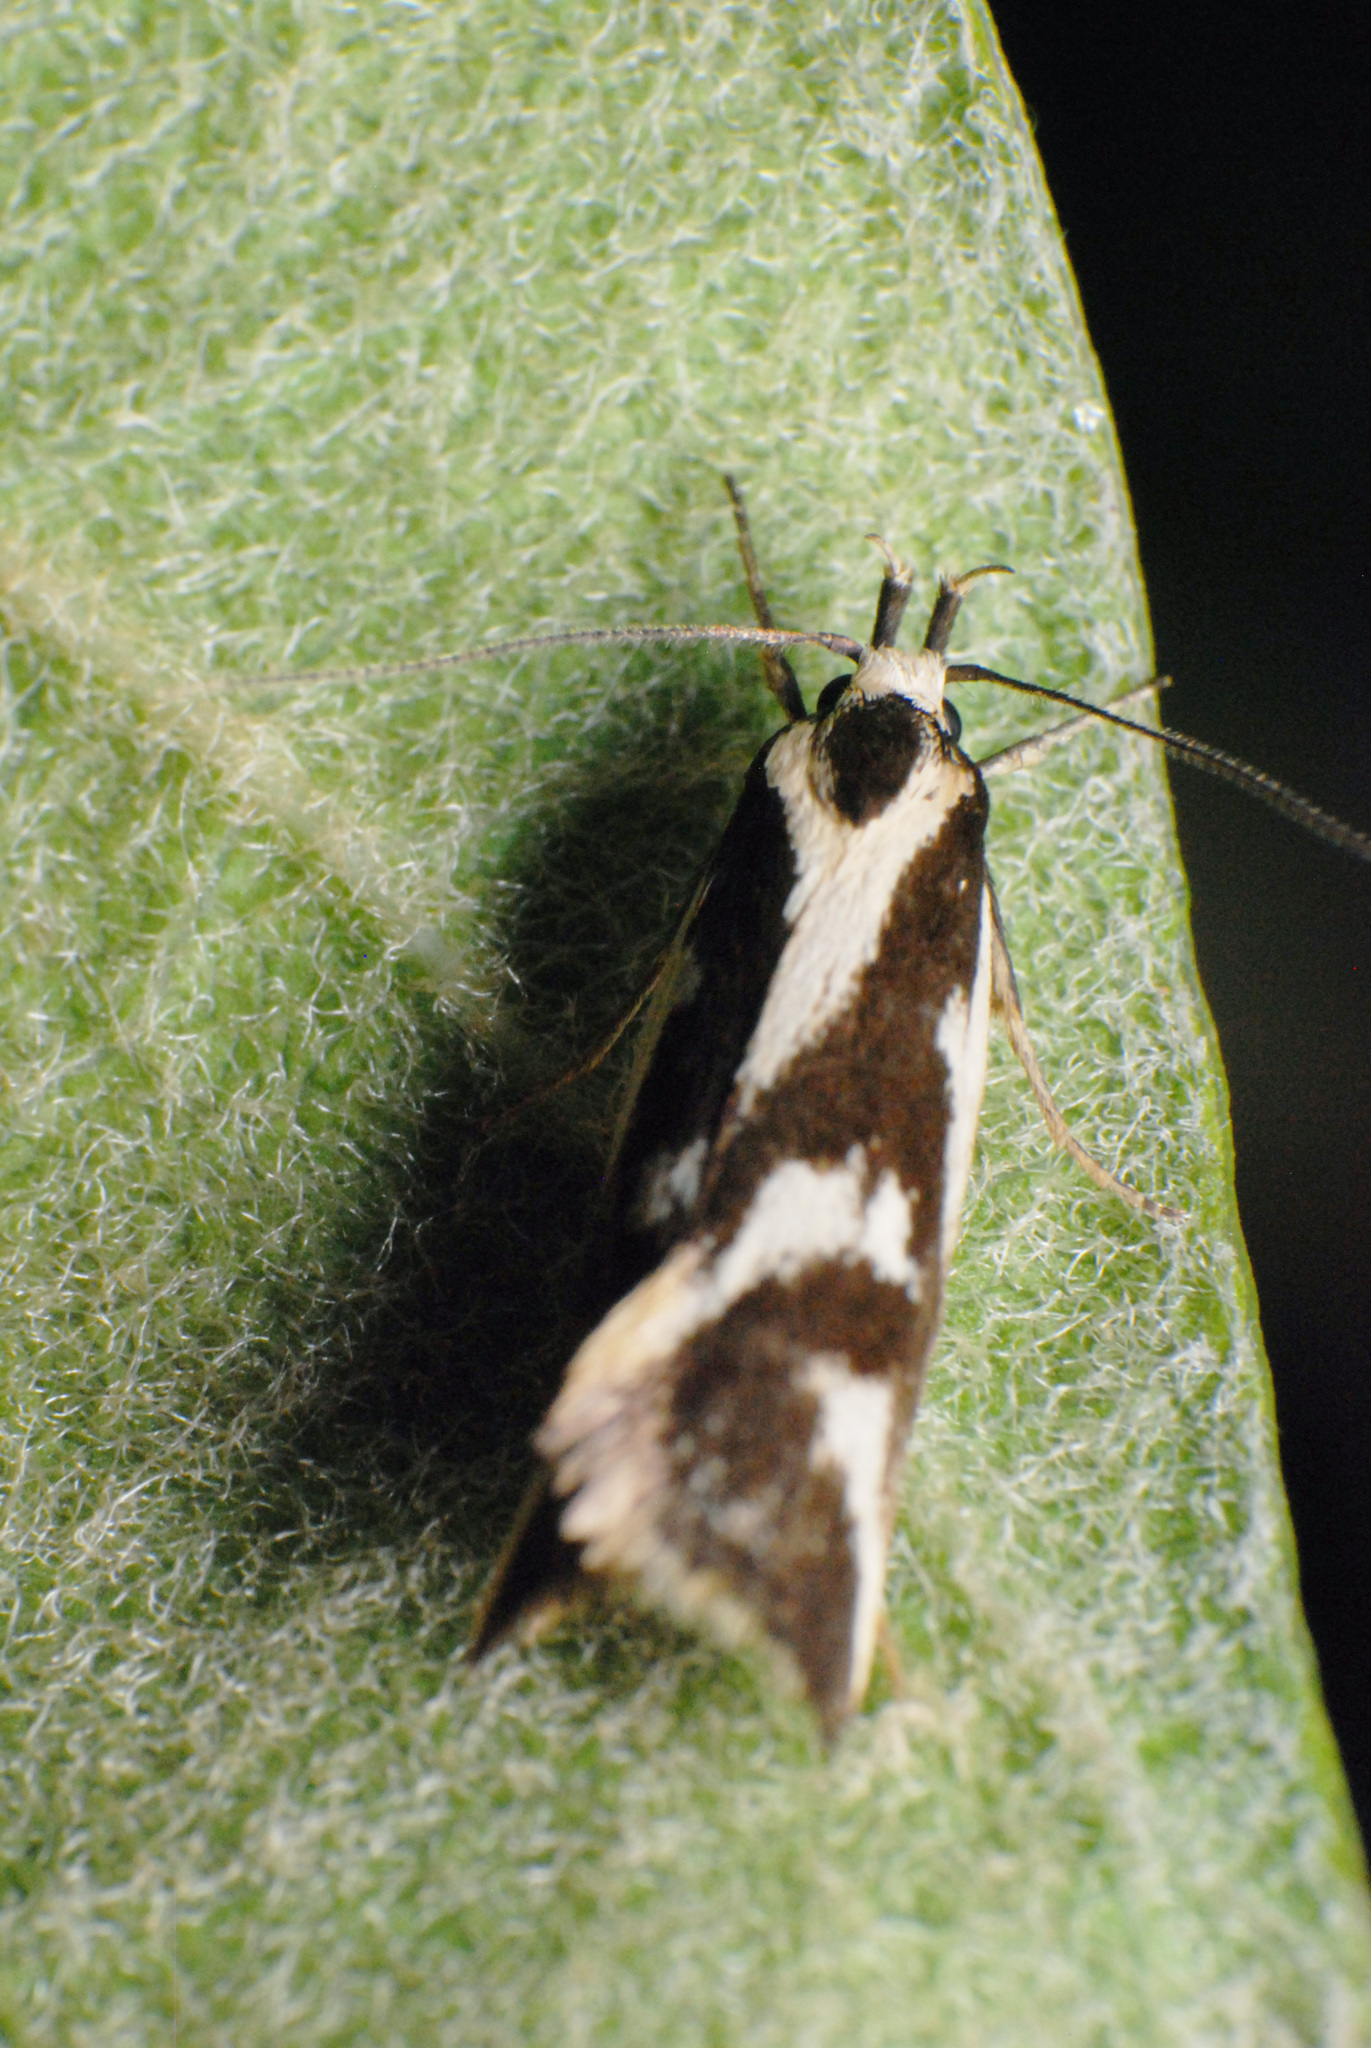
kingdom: Animalia
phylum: Arthropoda
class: Insecta
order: Lepidoptera
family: Oecophoridae
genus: Epithymema
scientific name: Epithymema incomposita
